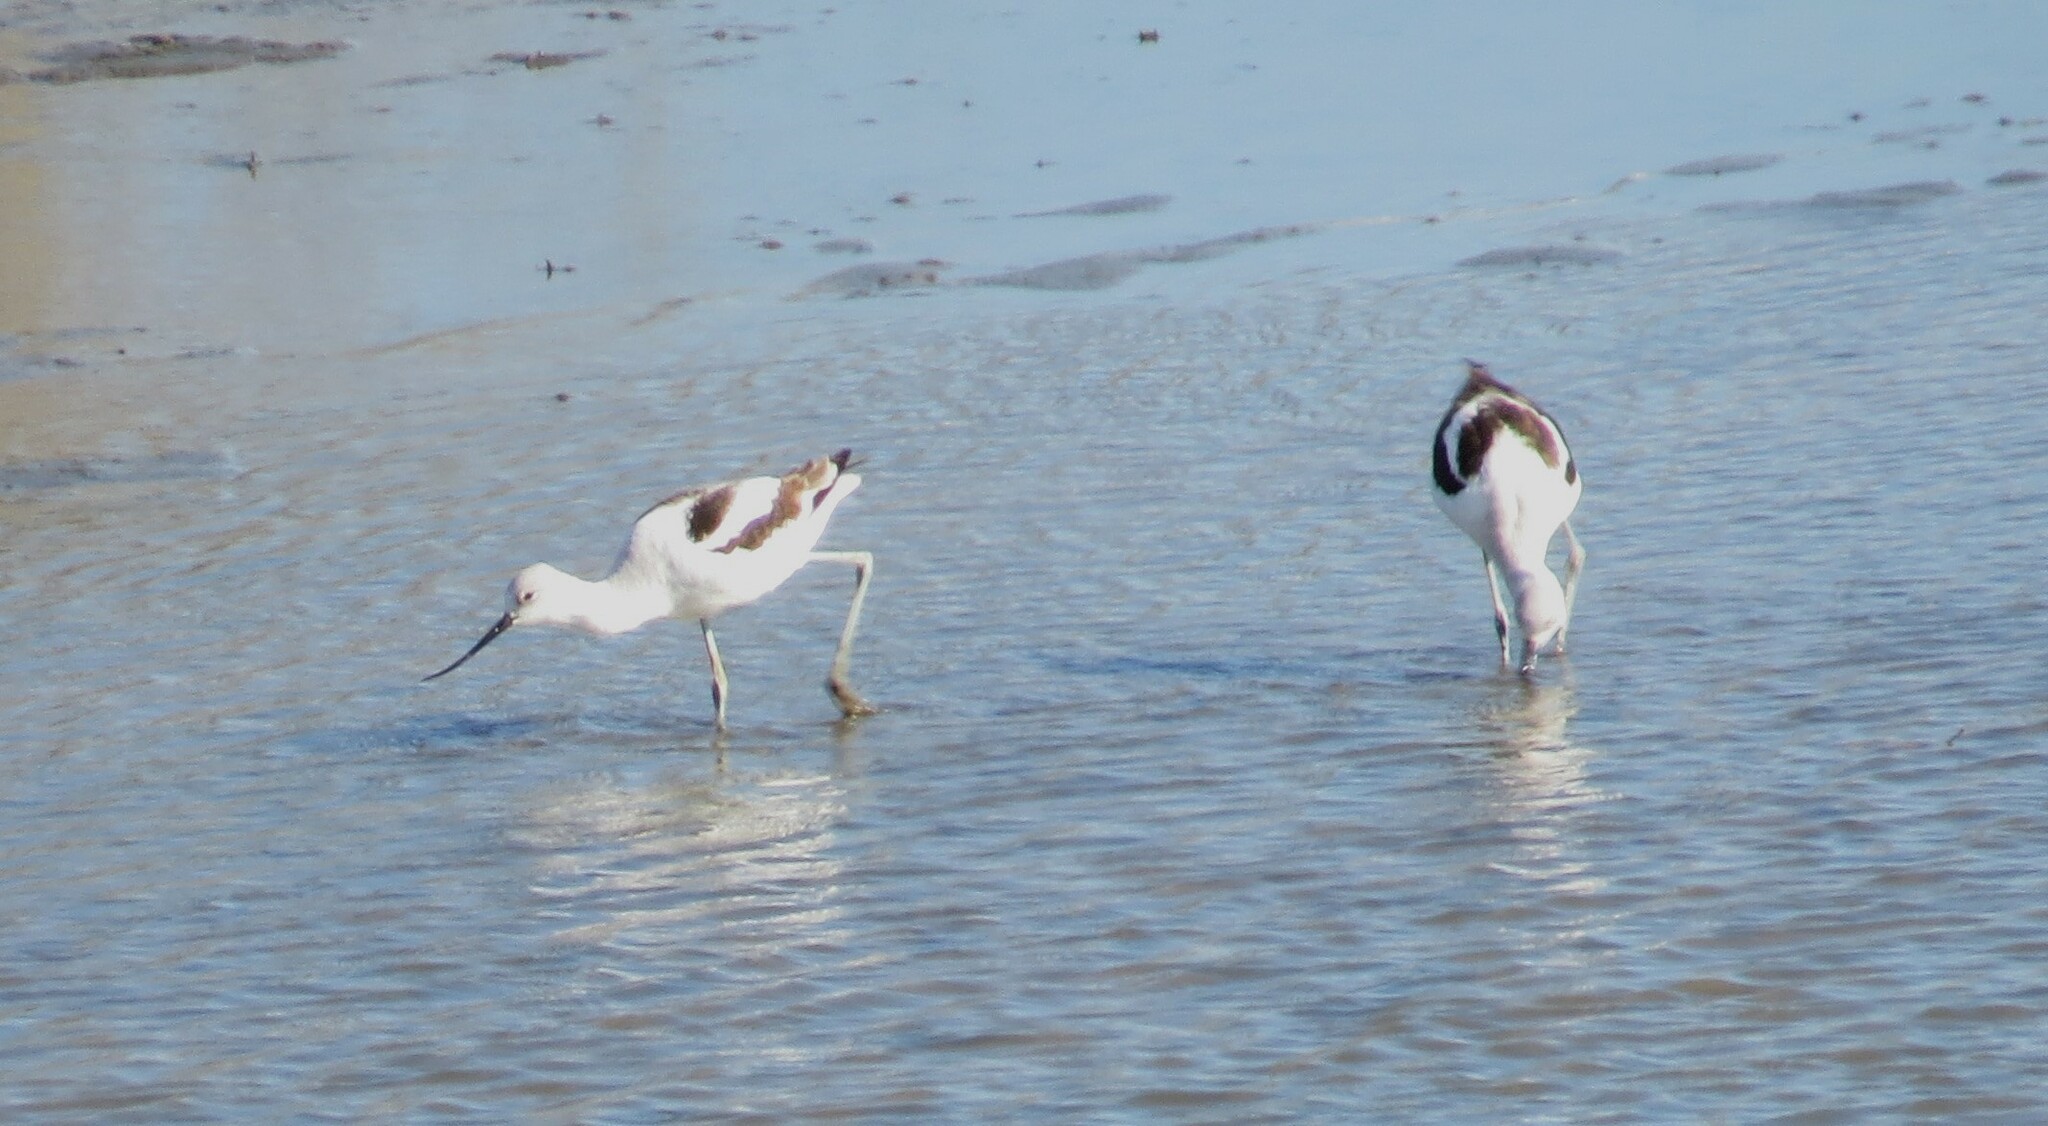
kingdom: Animalia
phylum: Chordata
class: Aves
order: Charadriiformes
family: Recurvirostridae
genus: Recurvirostra
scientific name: Recurvirostra americana
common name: American avocet
